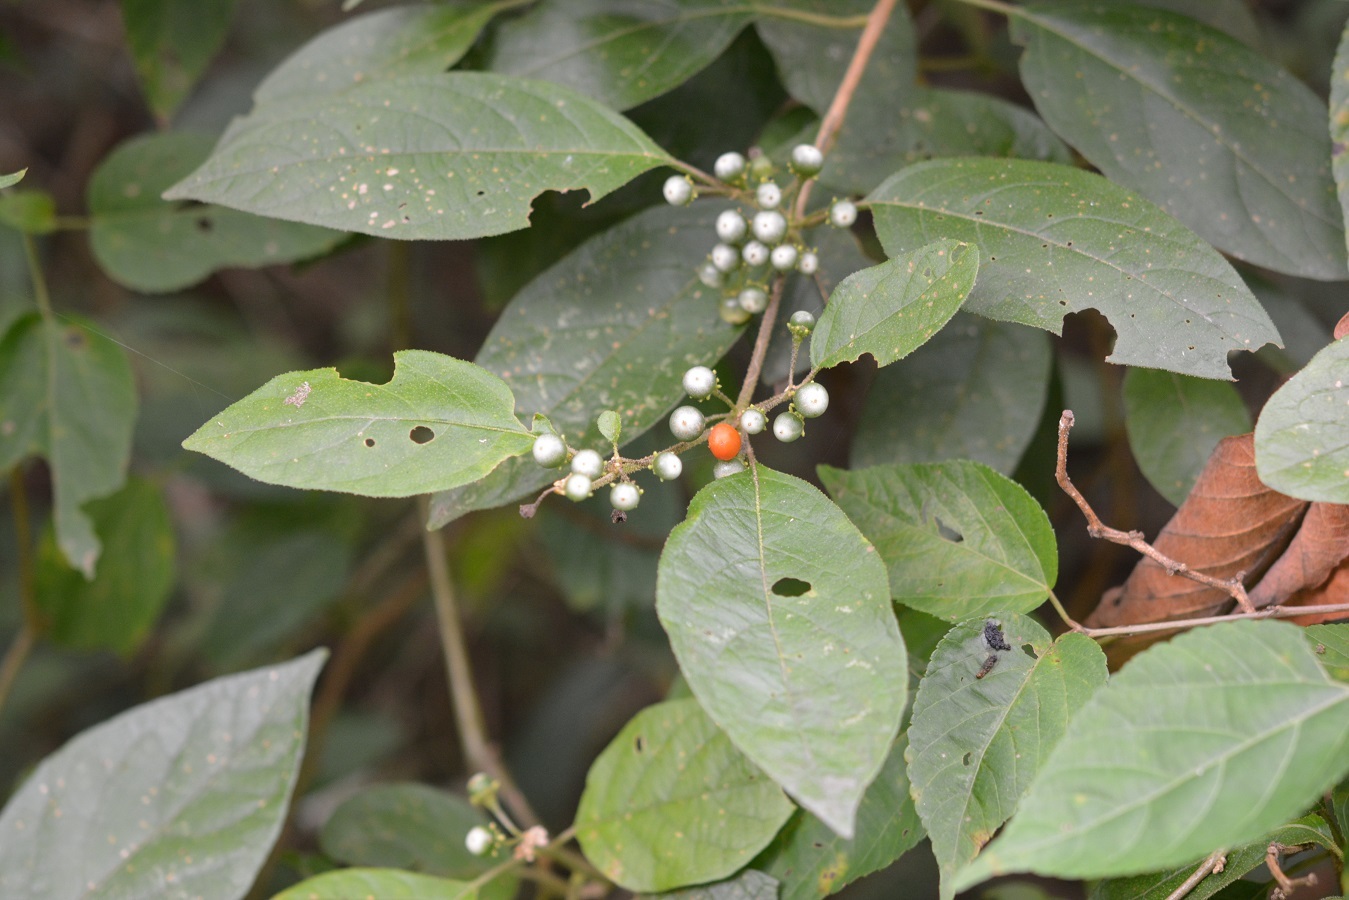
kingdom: Plantae
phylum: Tracheophyta
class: Magnoliopsida
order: Solanales
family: Solanaceae
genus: Lycianthes
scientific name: Lycianthes sideroxyloides
